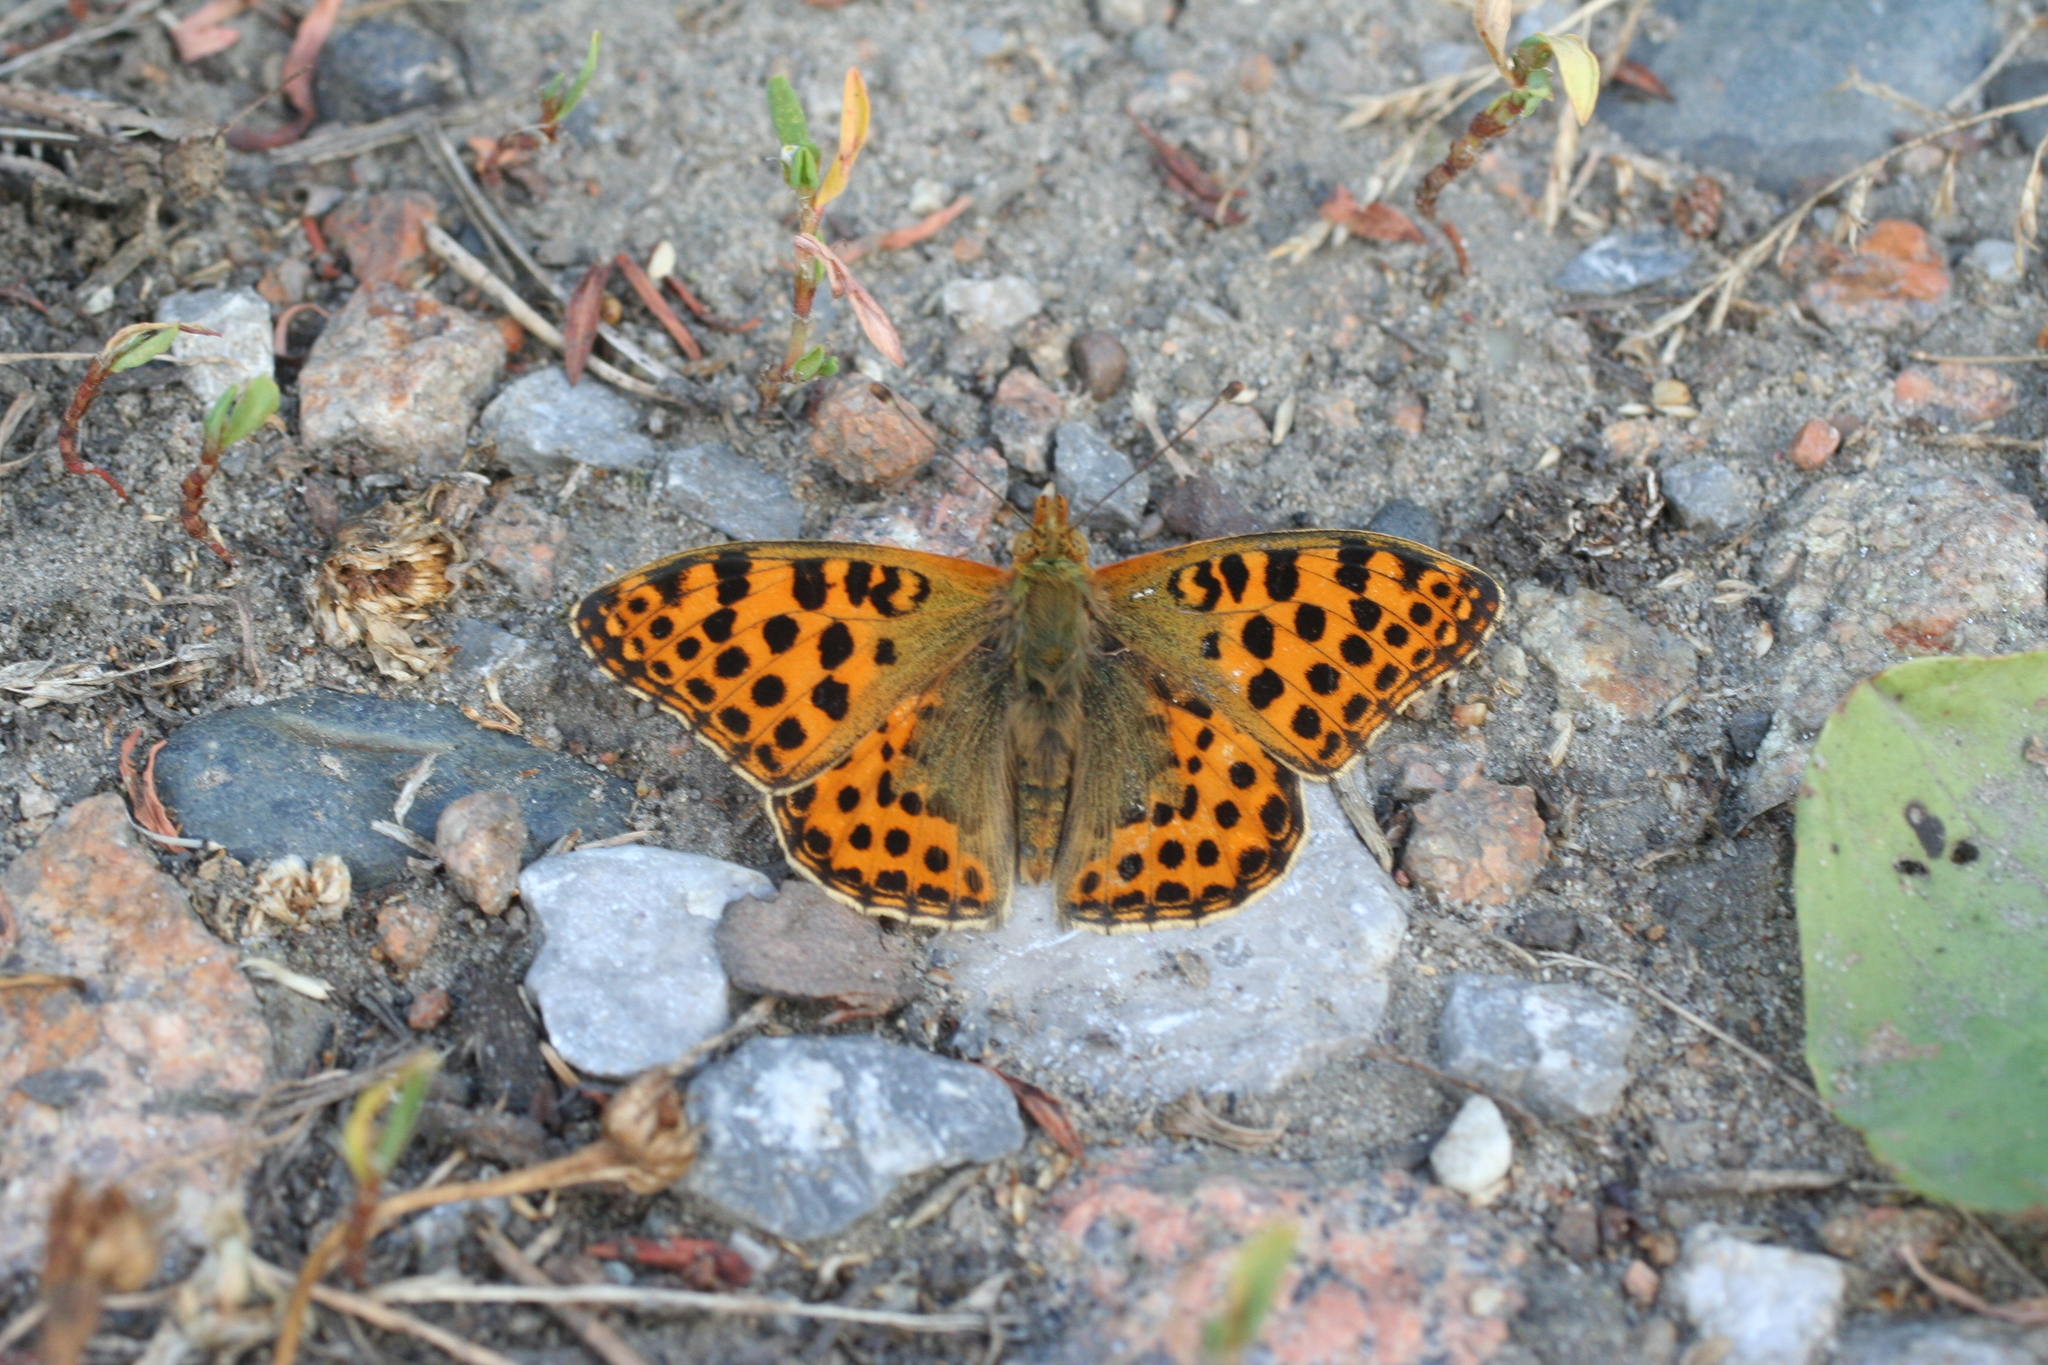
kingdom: Animalia
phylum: Arthropoda
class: Insecta
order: Lepidoptera
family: Nymphalidae
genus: Issoria
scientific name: Issoria lathonia
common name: Queen of spain fritillary
